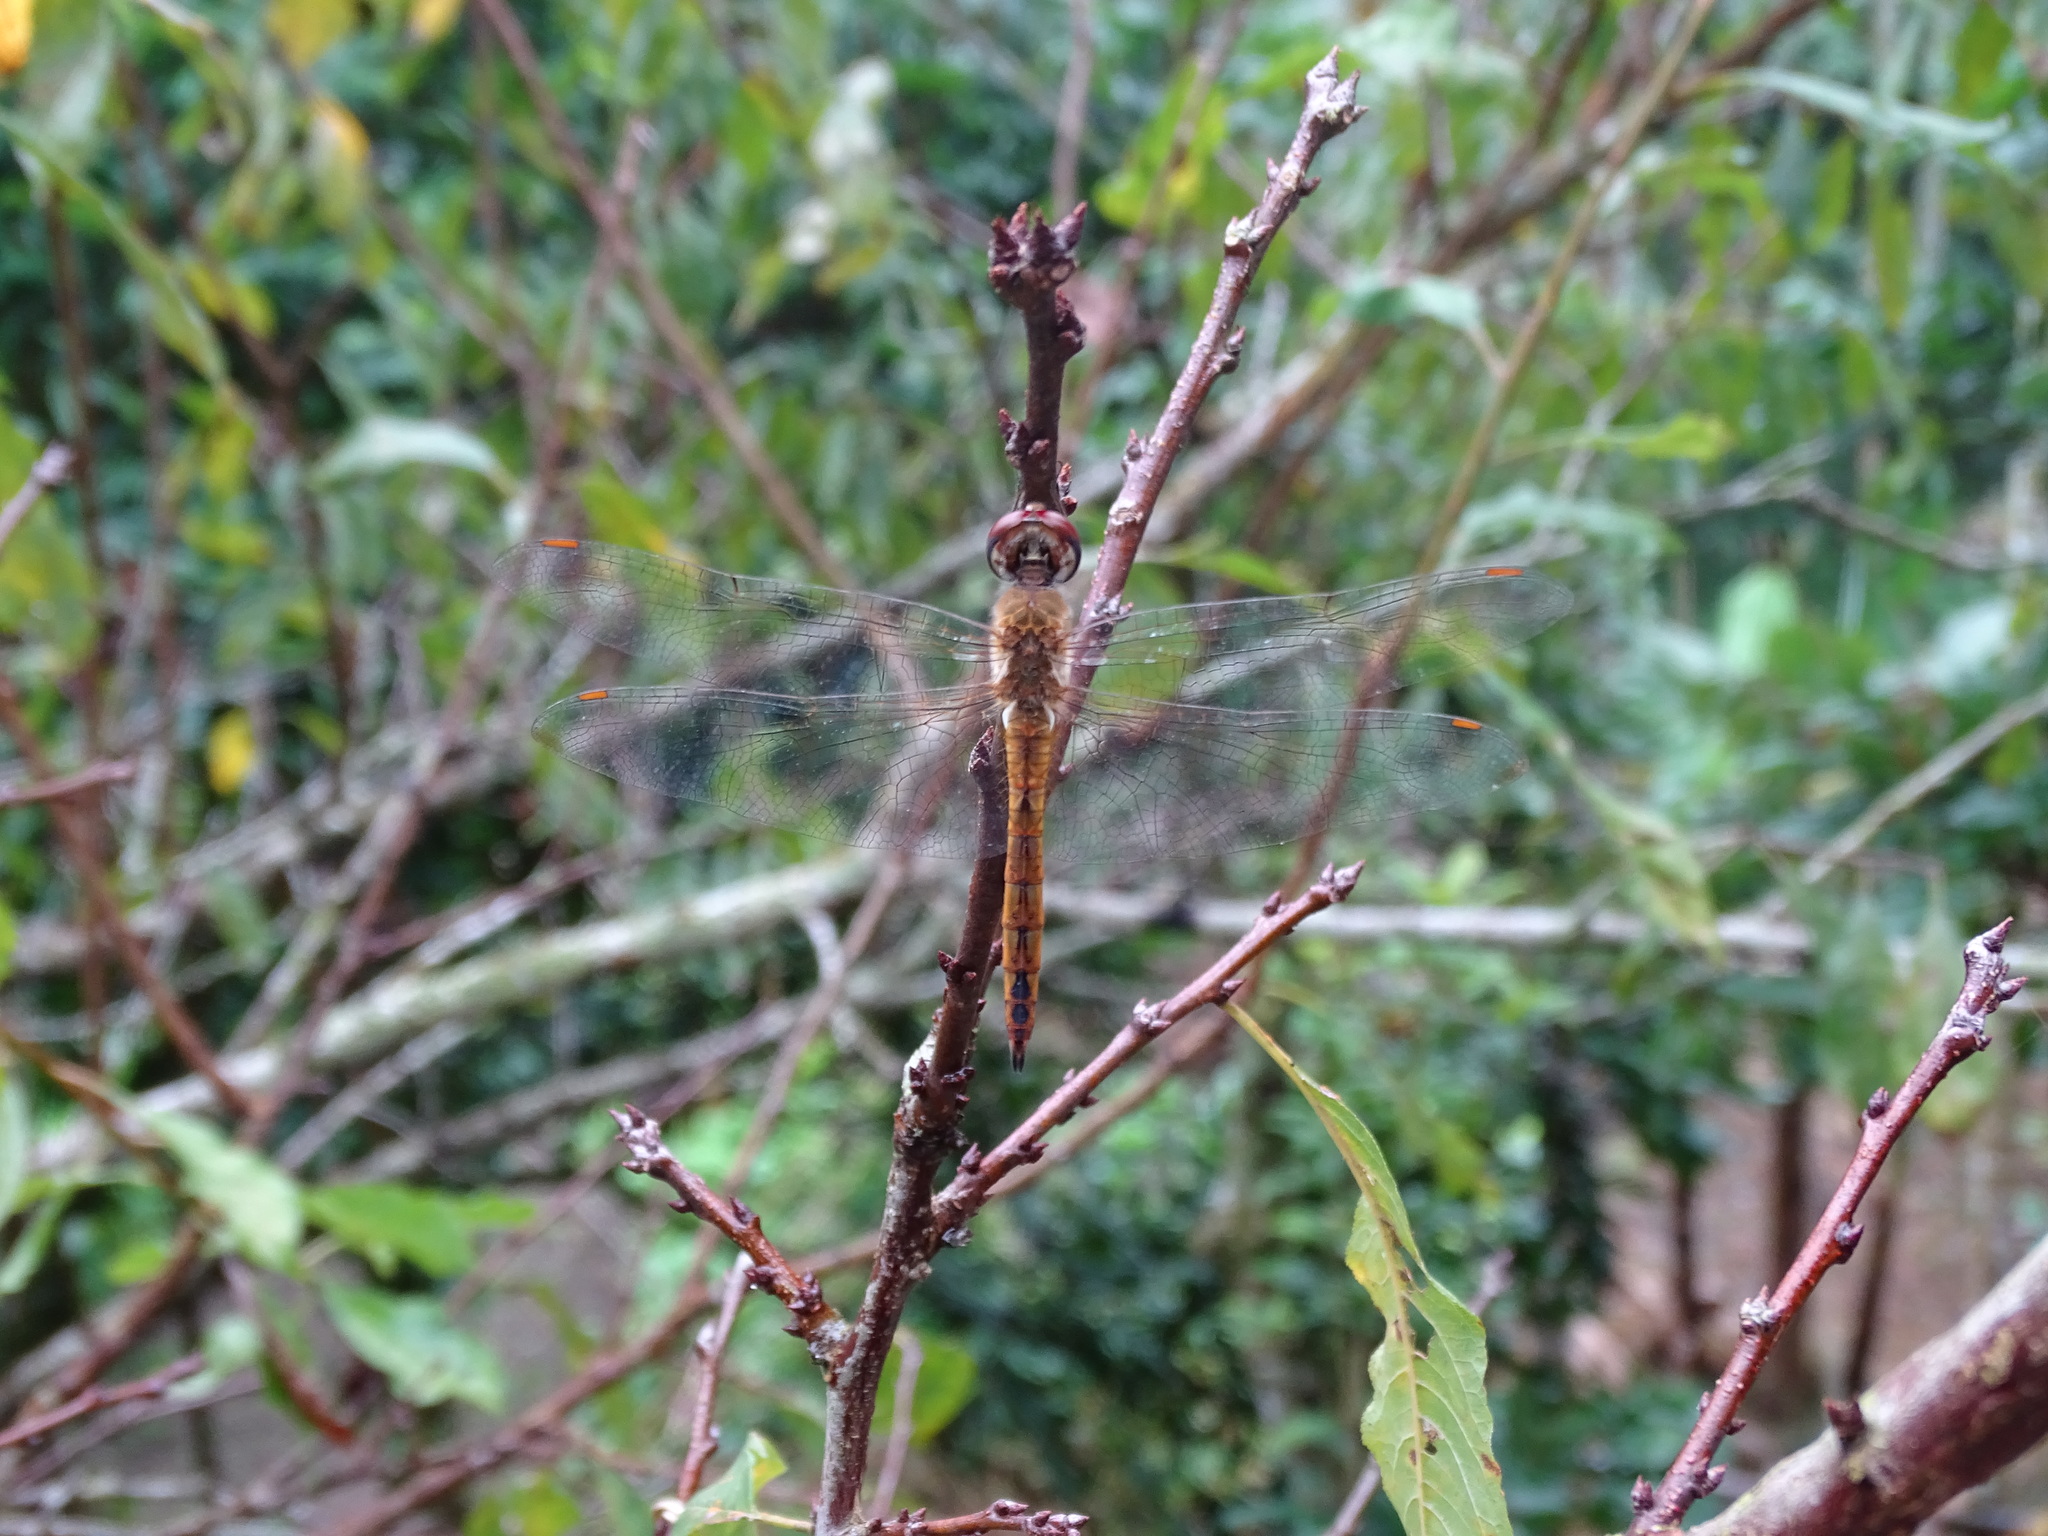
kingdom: Animalia
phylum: Arthropoda
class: Insecta
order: Odonata
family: Libellulidae
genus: Pantala
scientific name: Pantala flavescens
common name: Wandering glider
